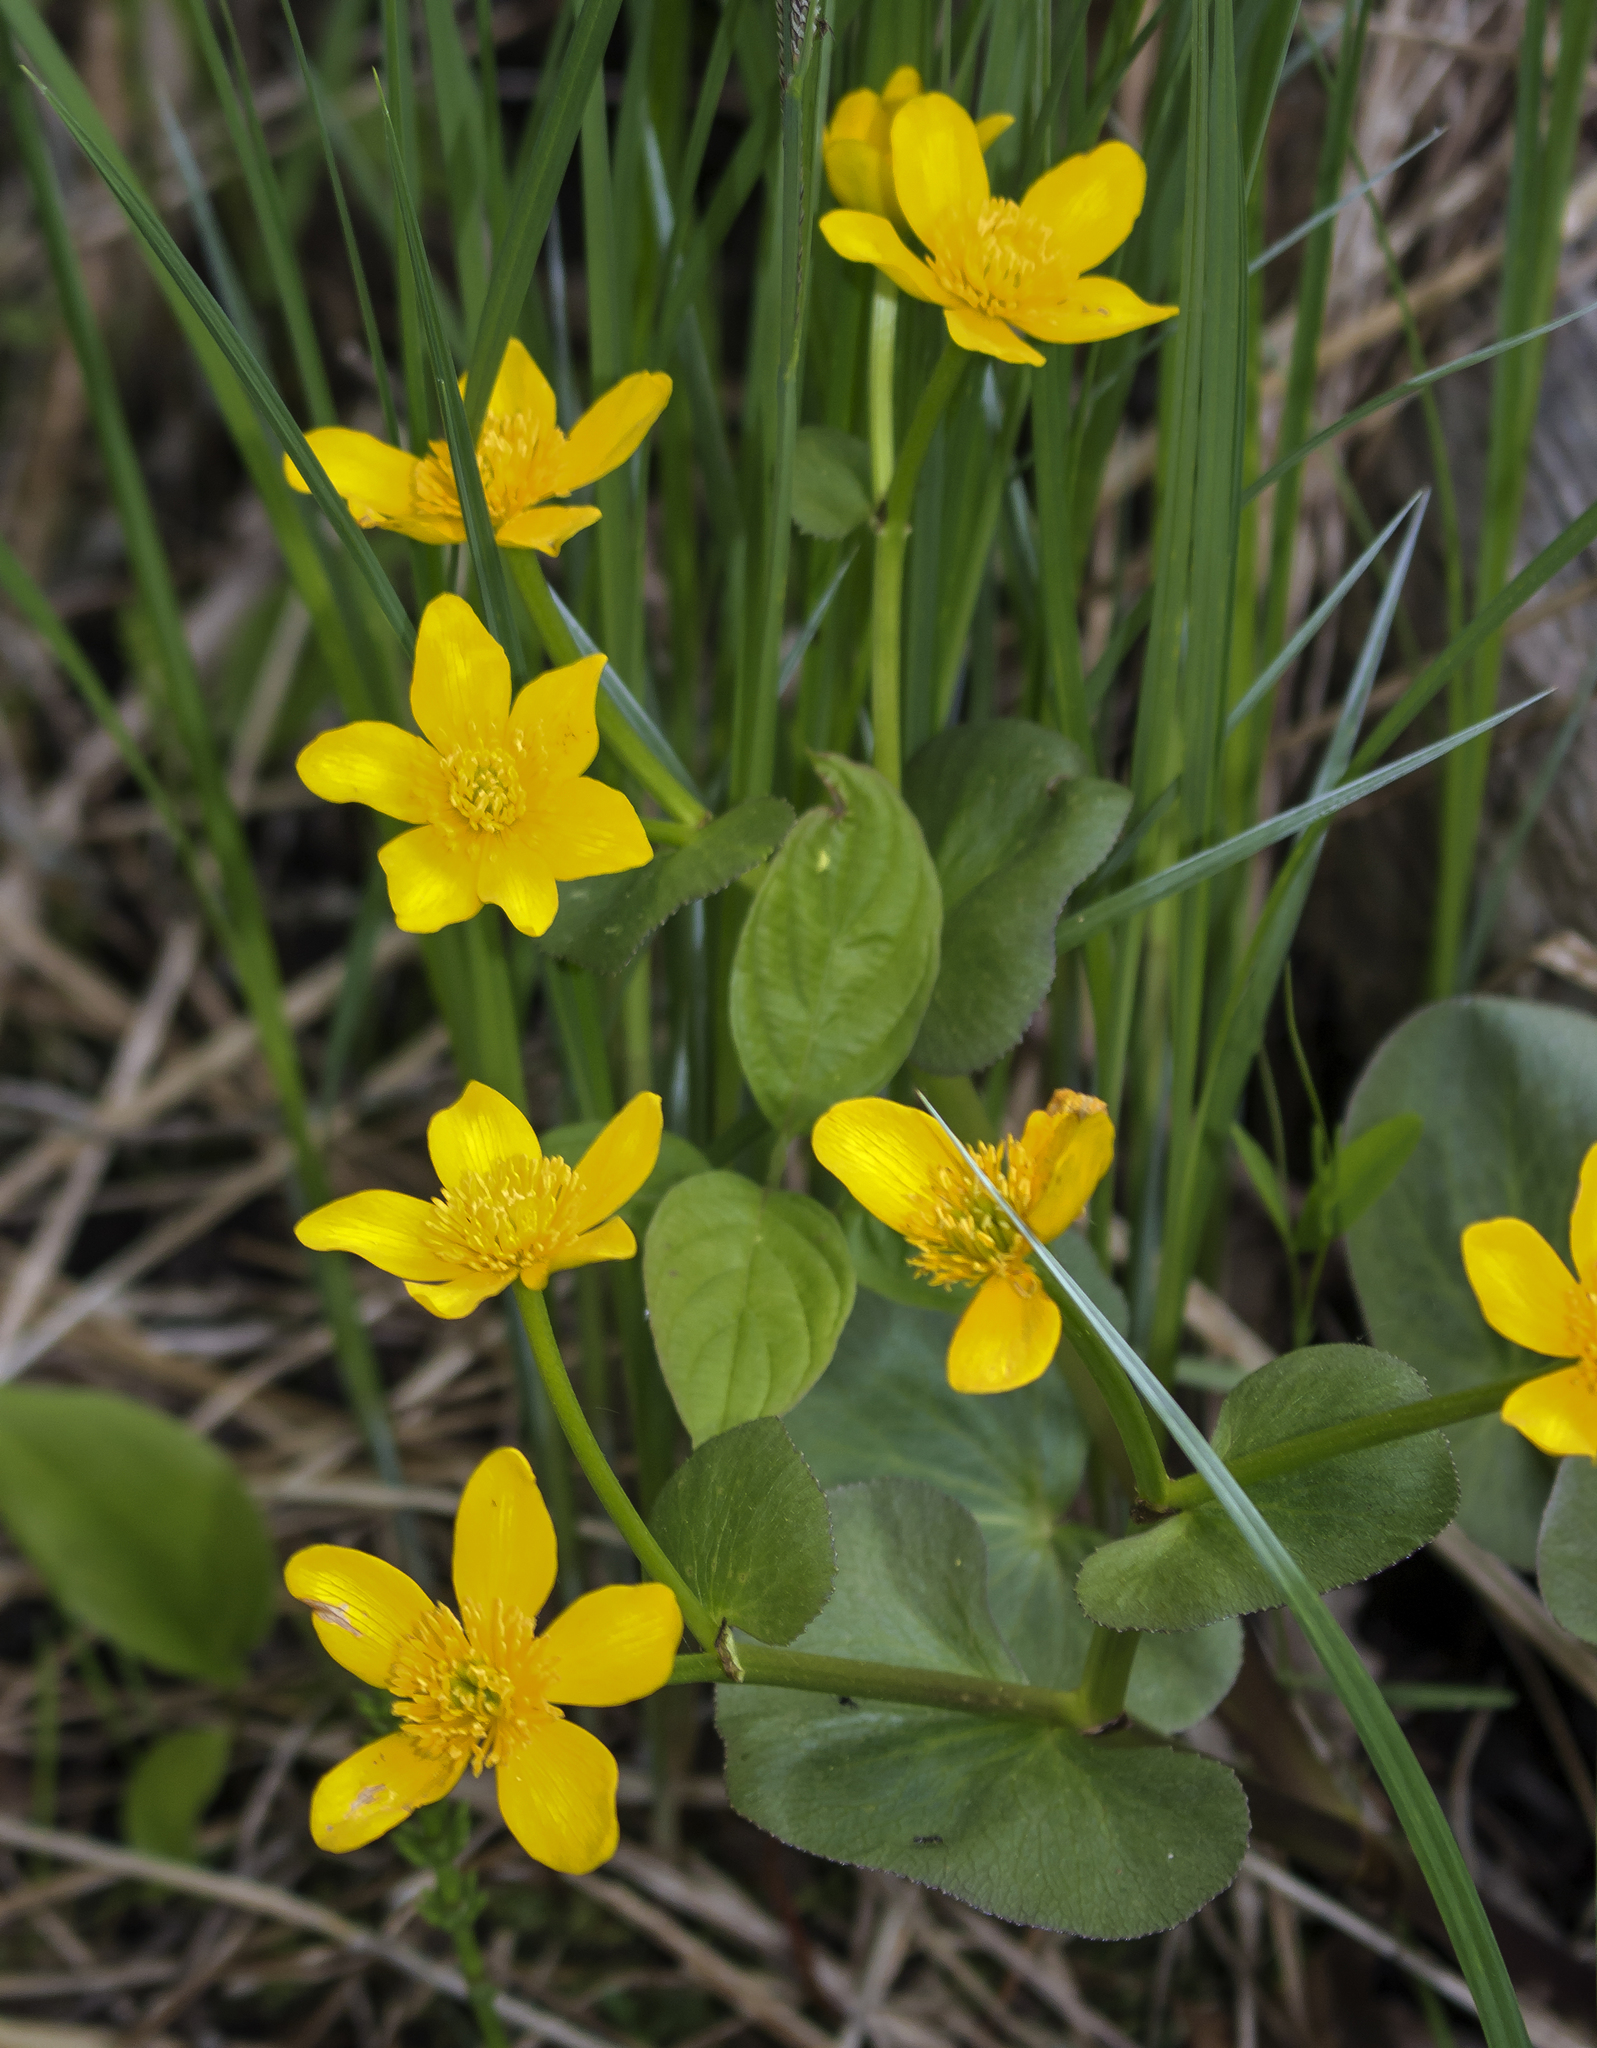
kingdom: Plantae
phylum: Tracheophyta
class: Magnoliopsida
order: Ranunculales
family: Ranunculaceae
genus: Caltha
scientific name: Caltha palustris
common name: Marsh marigold
